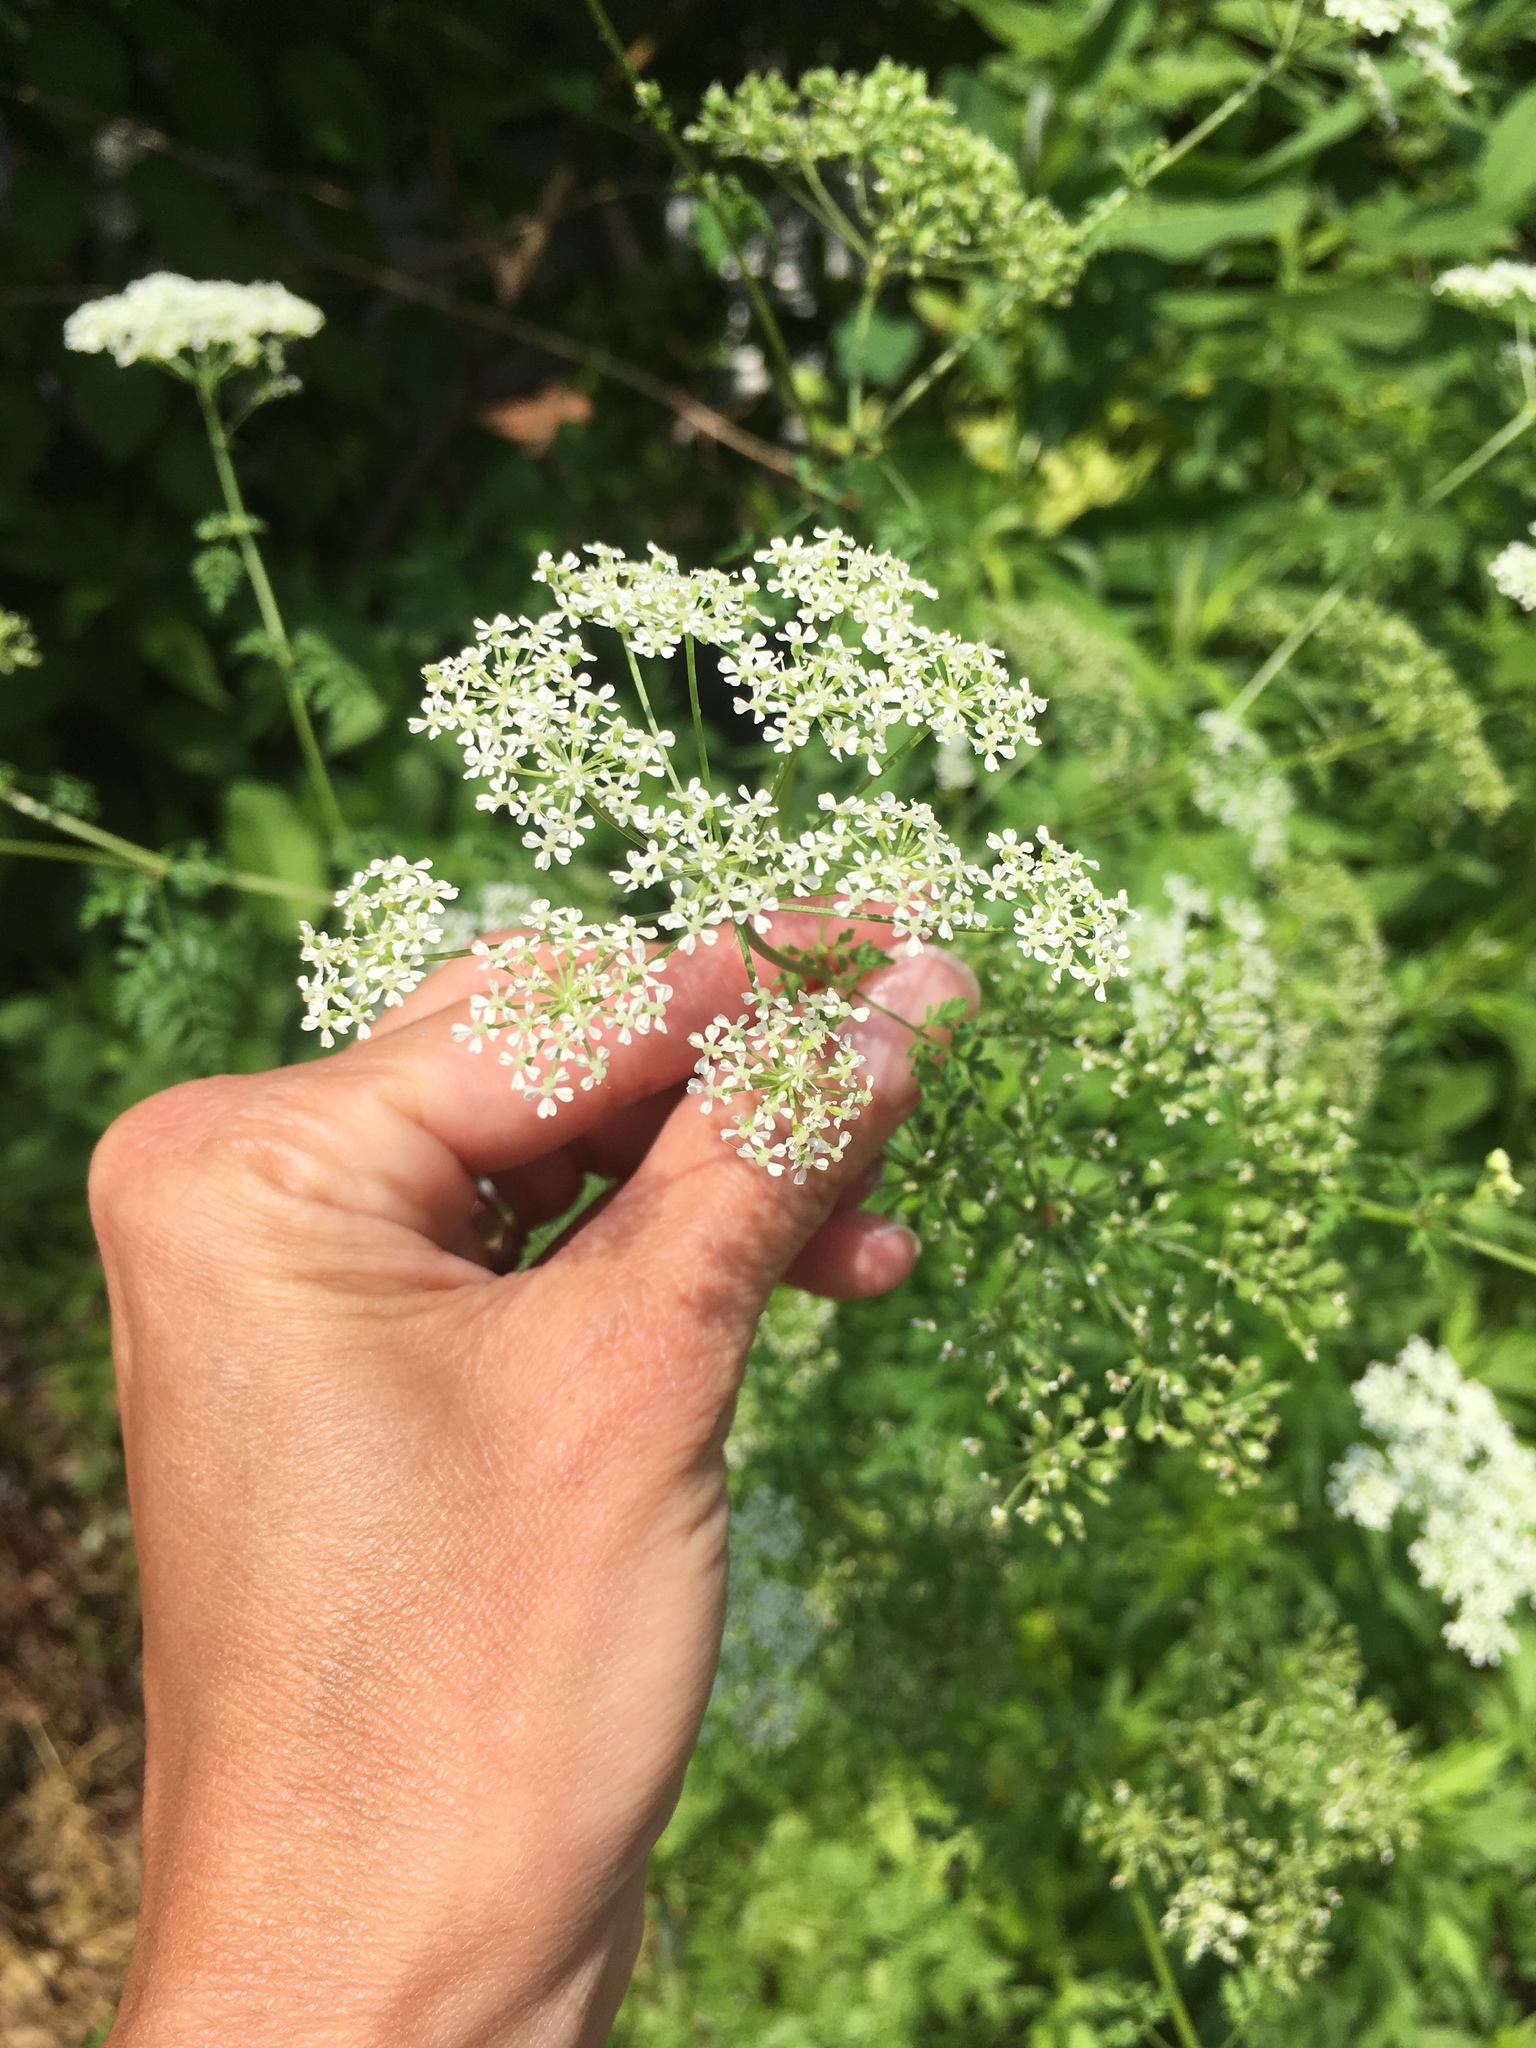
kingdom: Plantae
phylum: Tracheophyta
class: Magnoliopsida
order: Apiales
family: Apiaceae
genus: Conium
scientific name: Conium maculatum
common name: Hemlock
